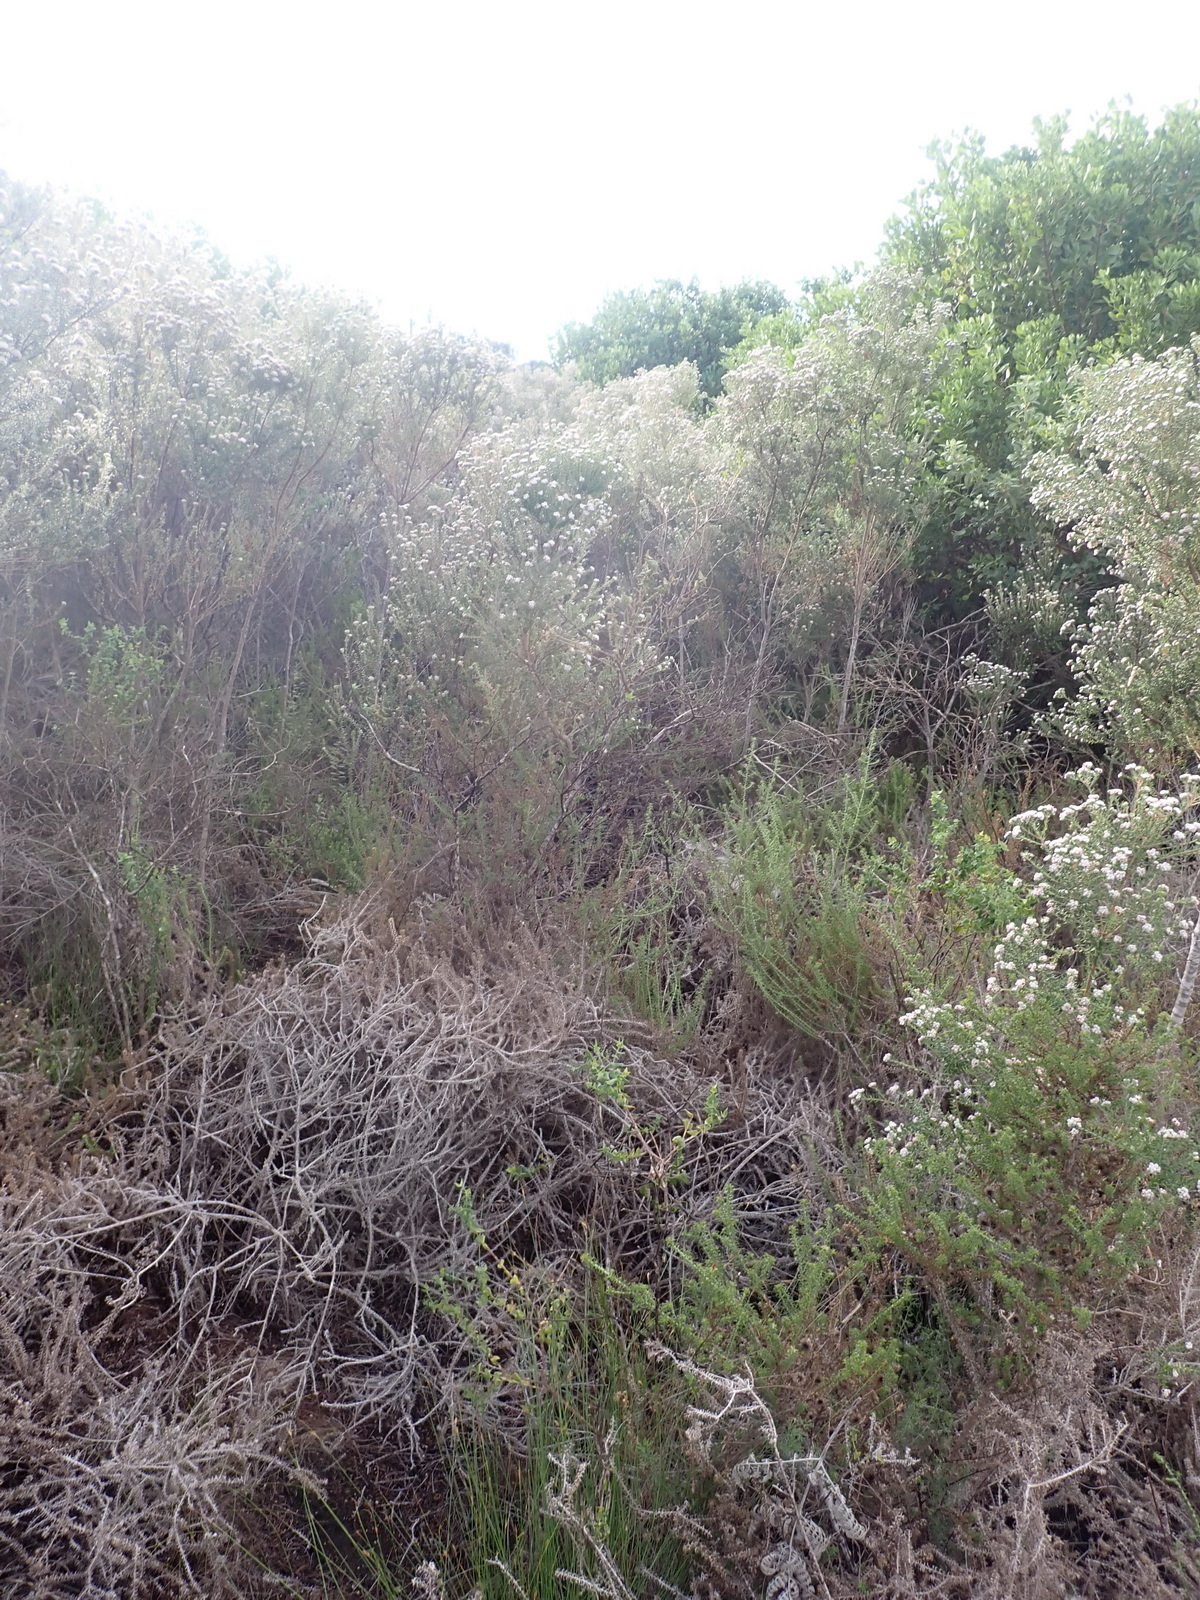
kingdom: Plantae
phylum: Tracheophyta
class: Magnoliopsida
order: Rosales
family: Rhamnaceae
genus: Phylica
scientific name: Phylica purpurea
